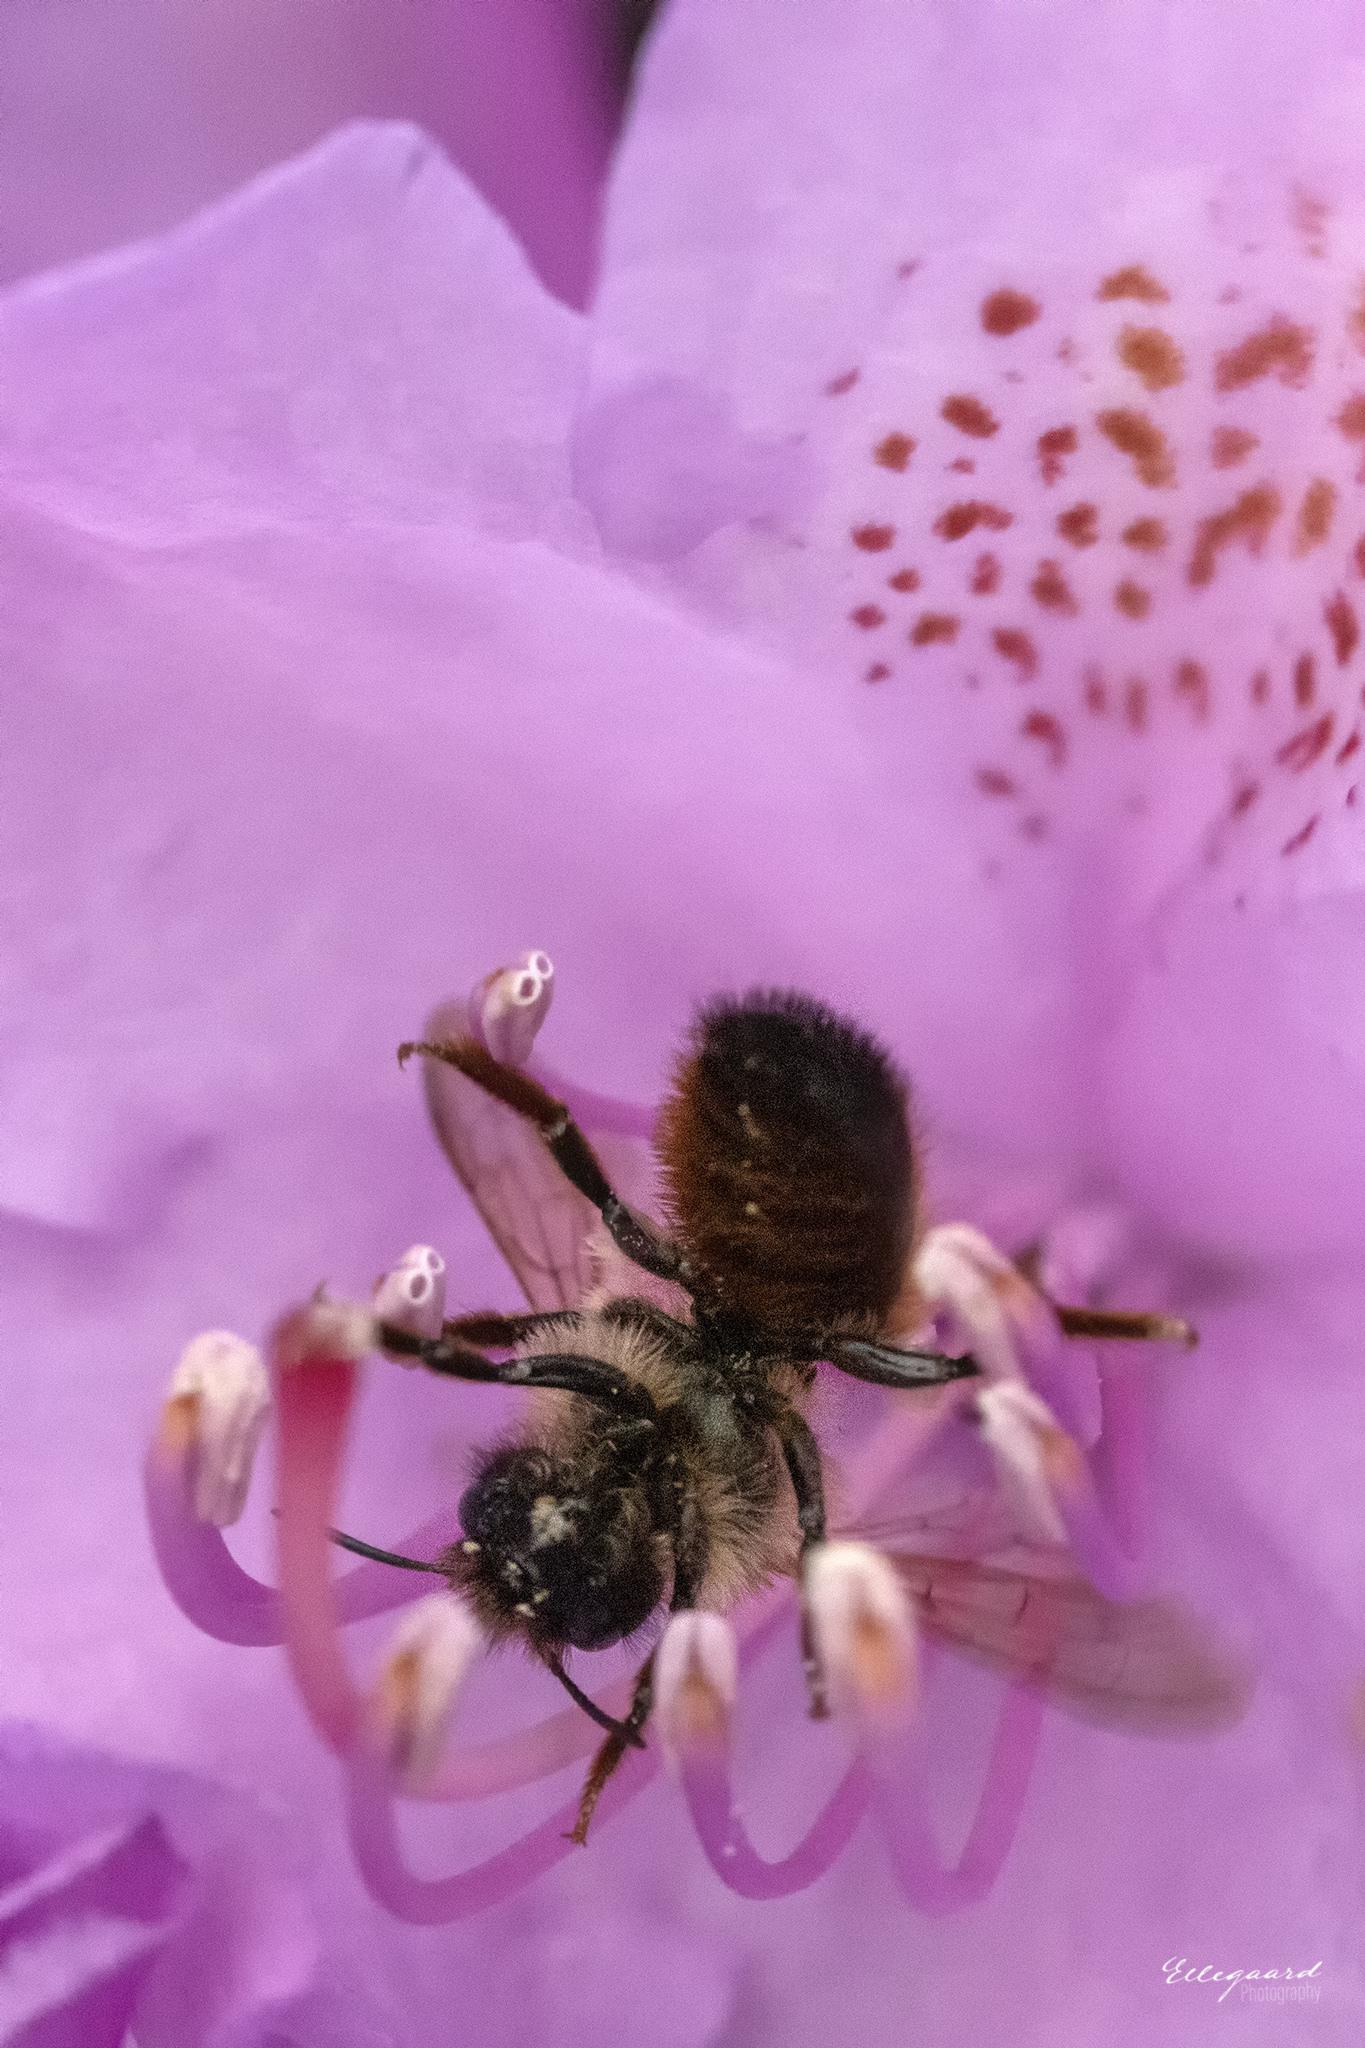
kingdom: Animalia
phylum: Arthropoda
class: Insecta
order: Hymenoptera
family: Megachilidae
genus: Osmia
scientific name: Osmia bicornis
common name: Red mason bee
